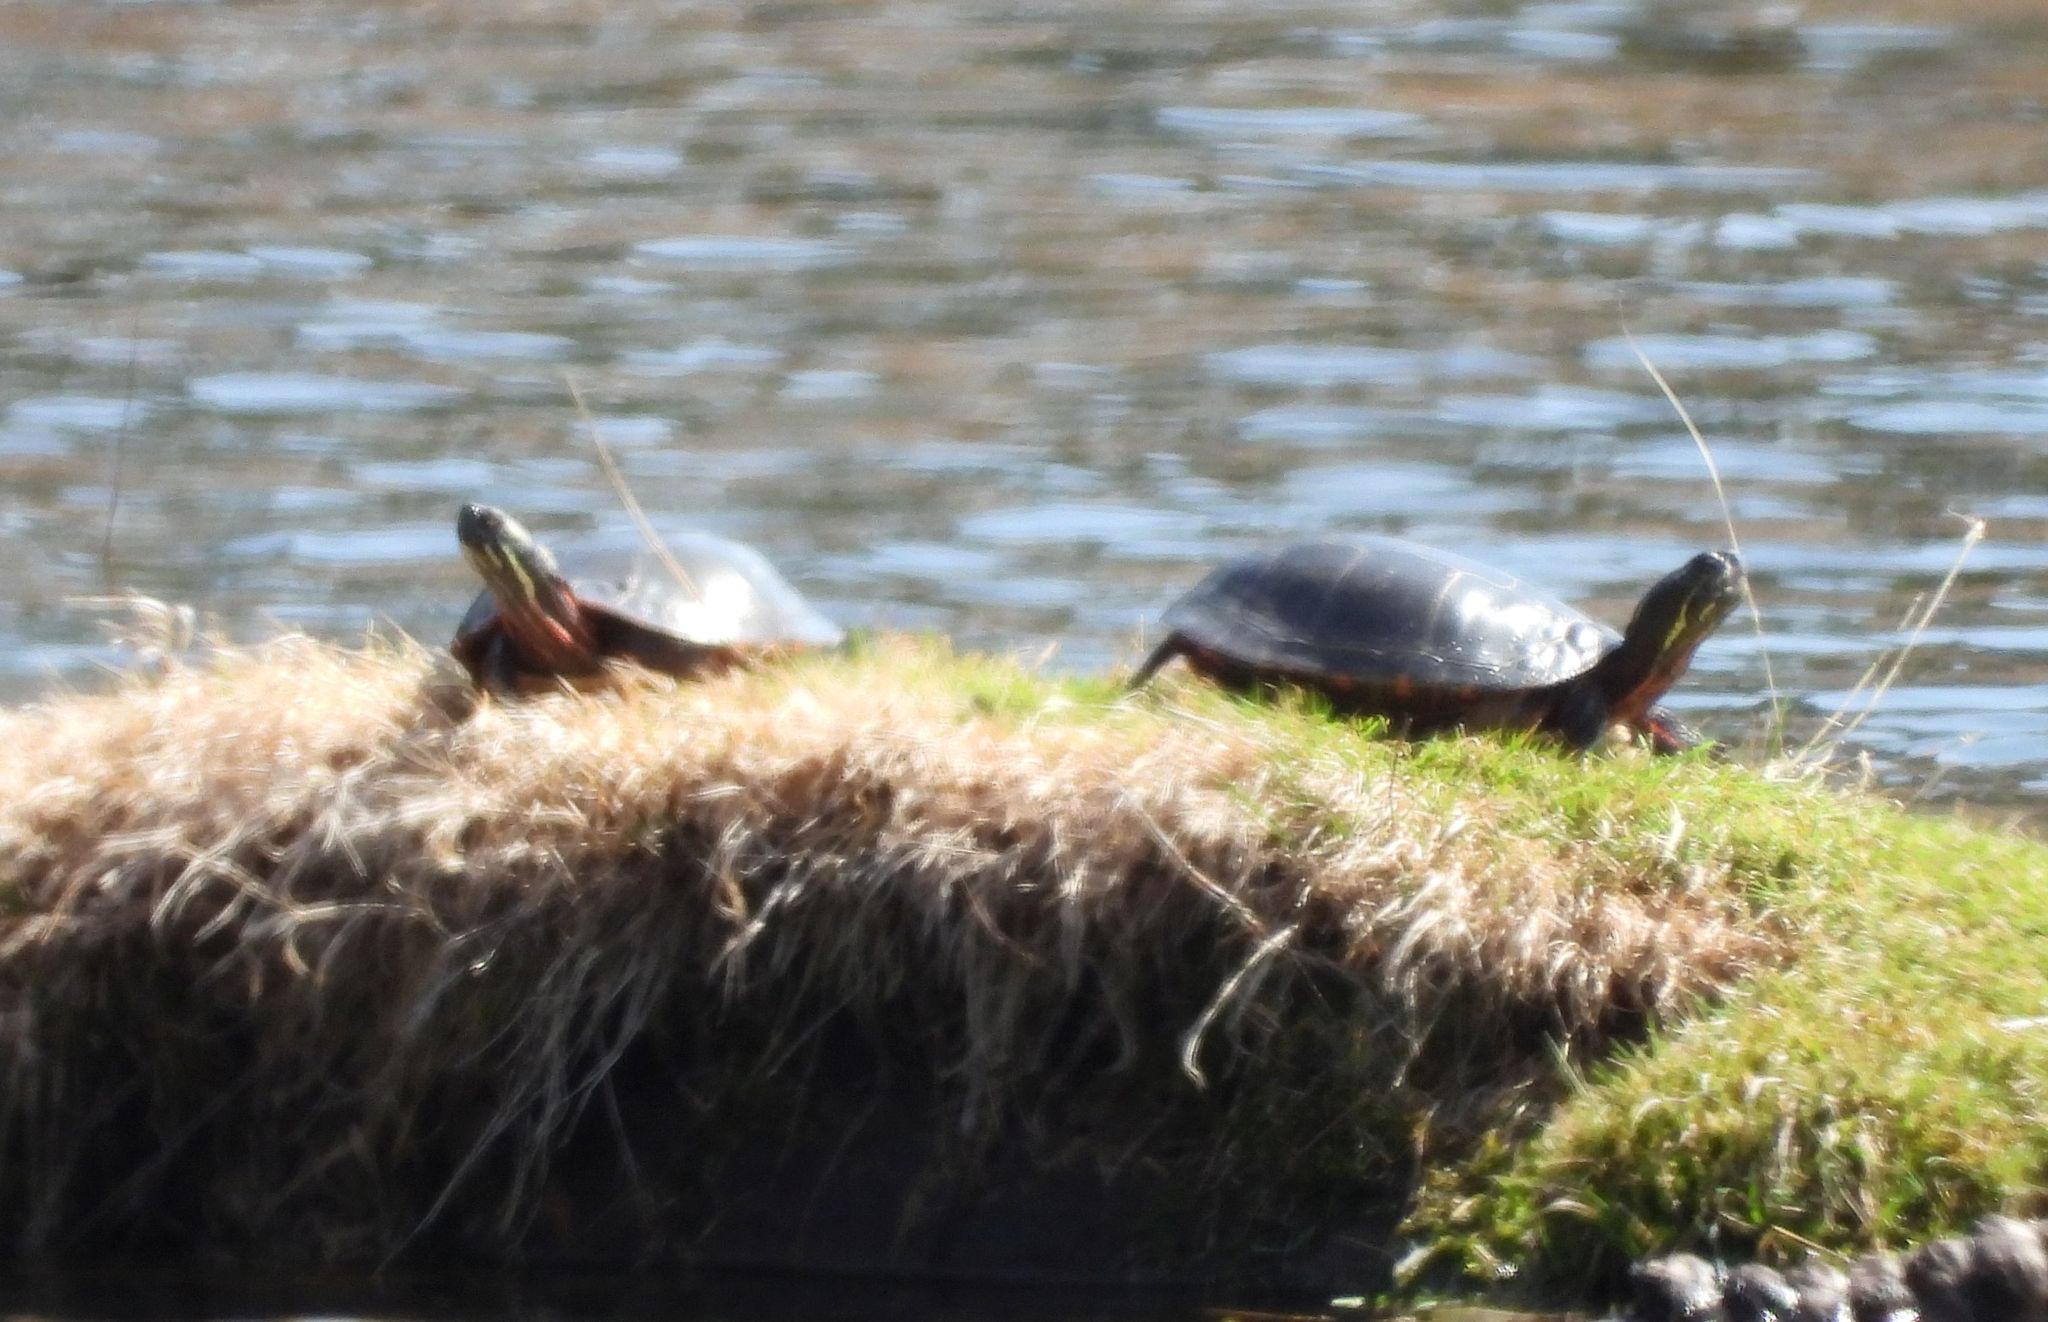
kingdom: Animalia
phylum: Chordata
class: Testudines
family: Emydidae
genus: Chrysemys
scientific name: Chrysemys picta
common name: Painted turtle
